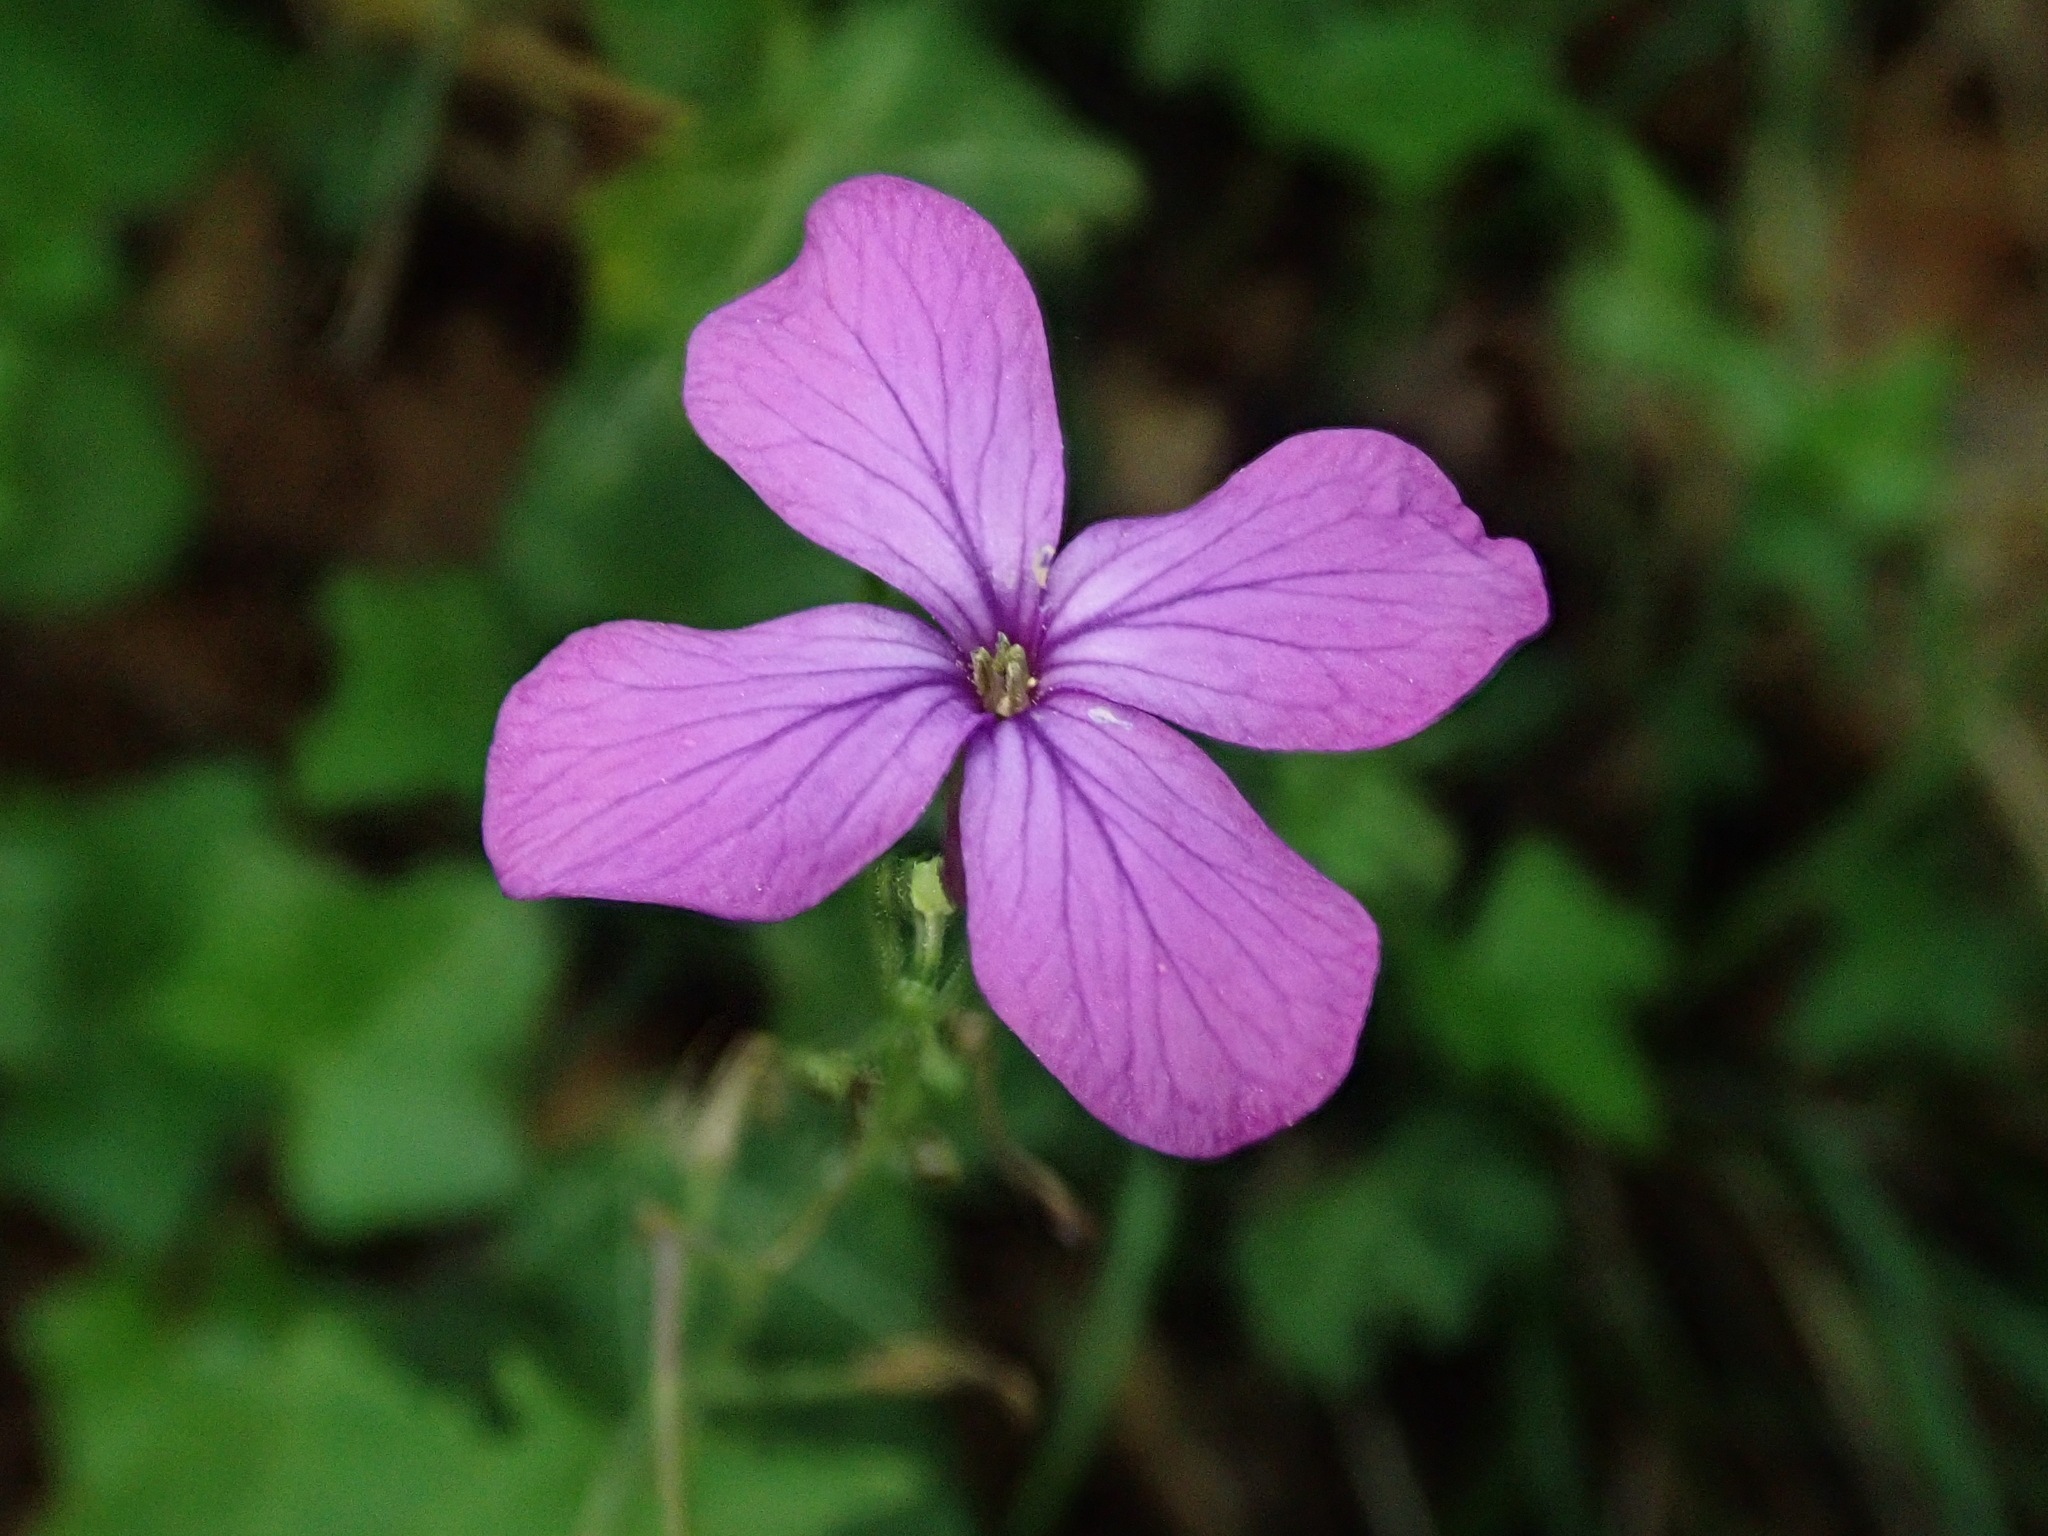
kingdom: Plantae
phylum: Tracheophyta
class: Magnoliopsida
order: Brassicales
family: Brassicaceae
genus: Lunaria
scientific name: Lunaria annua
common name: Honesty
